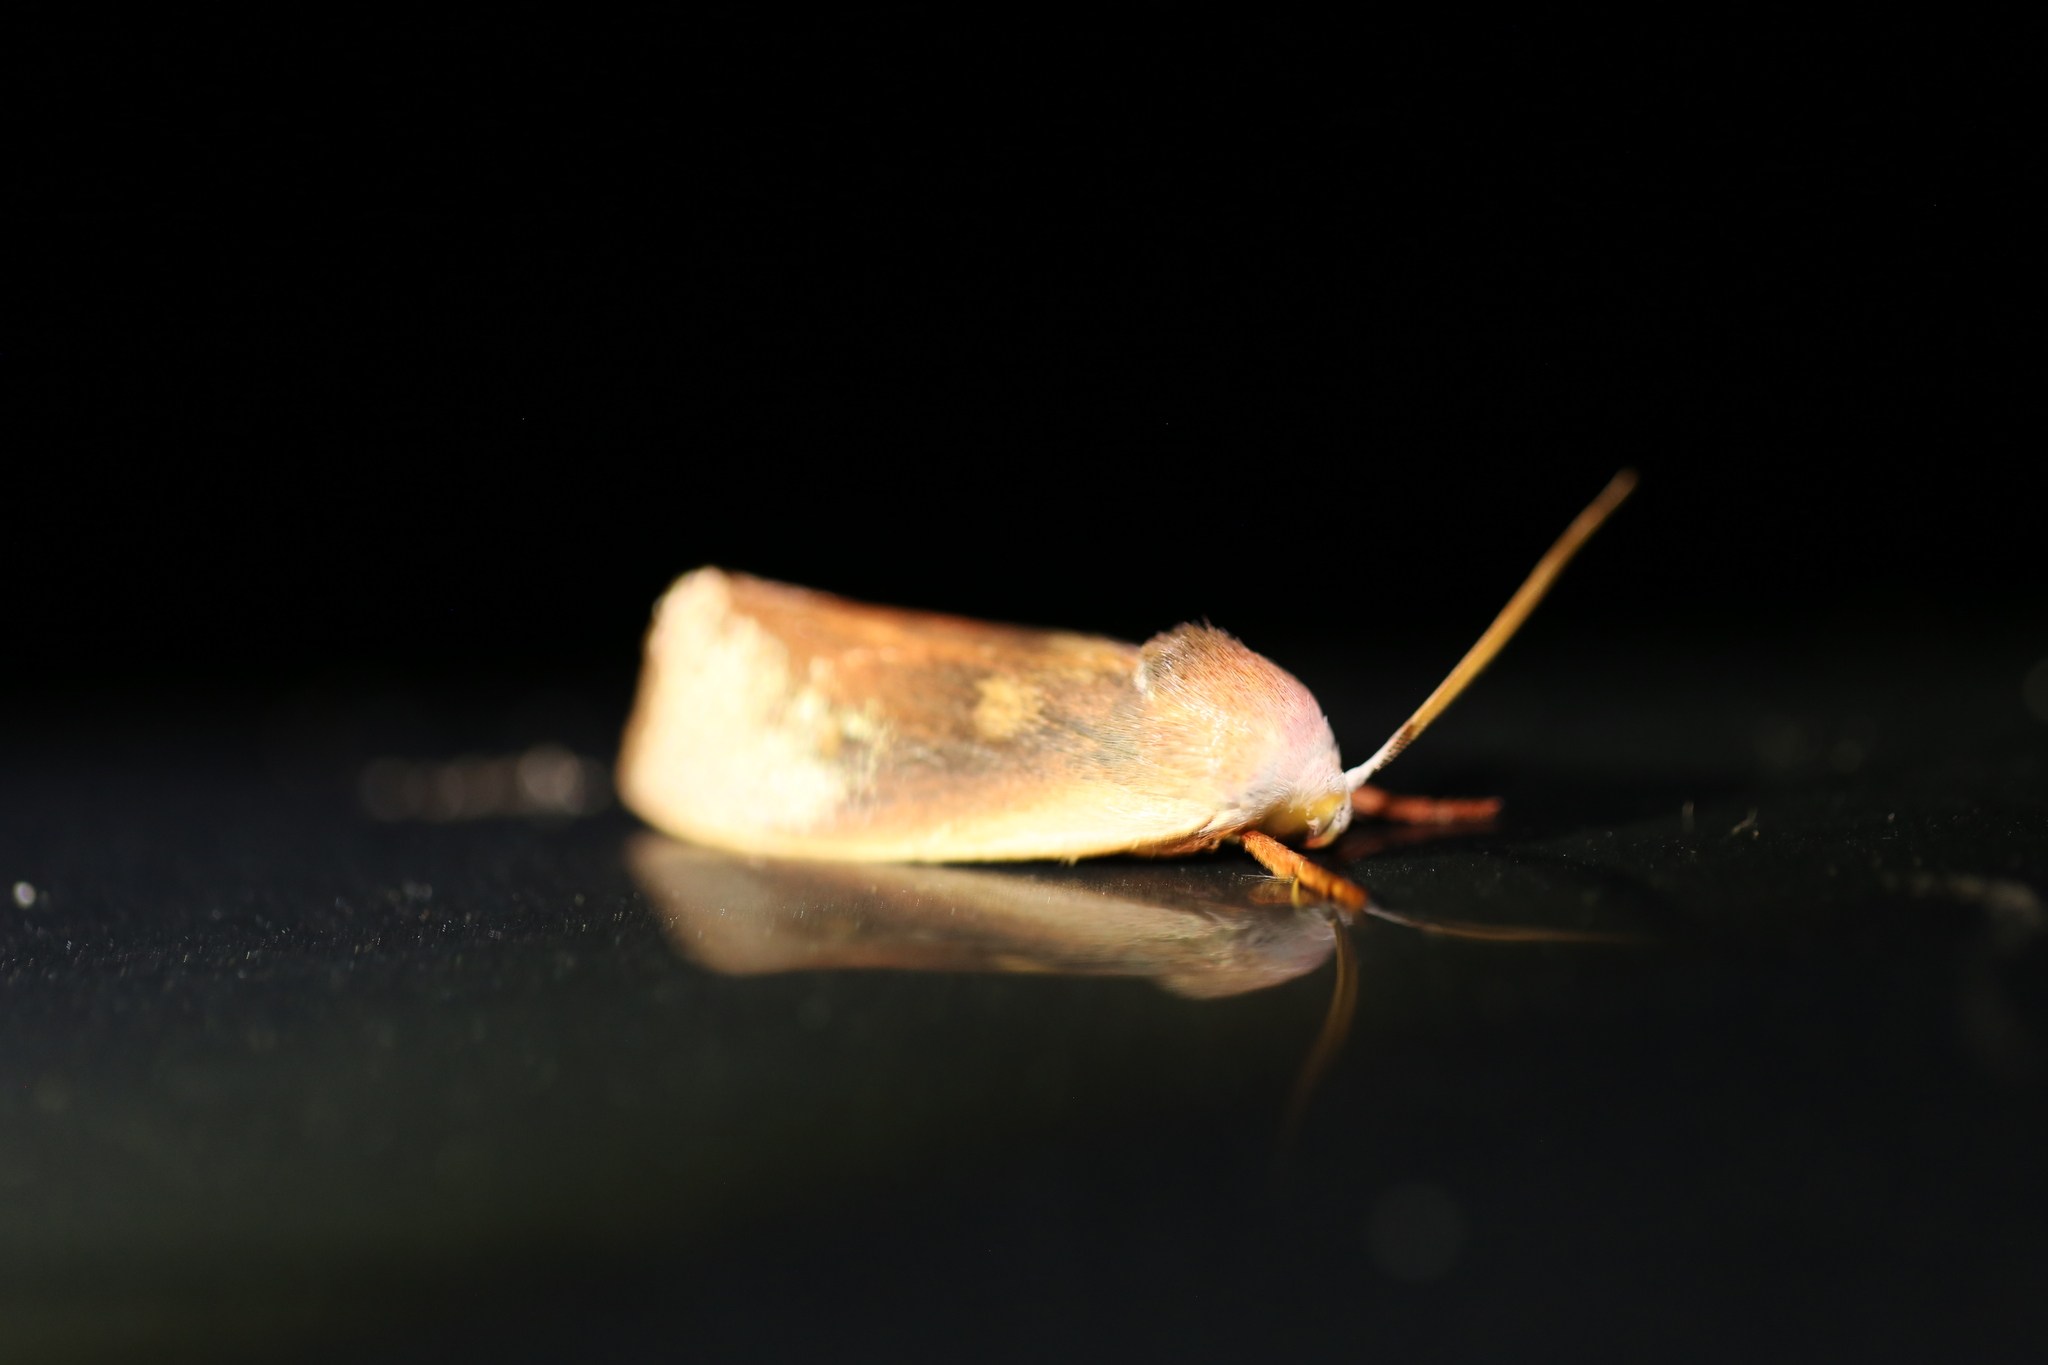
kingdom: Animalia
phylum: Arthropoda
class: Insecta
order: Lepidoptera
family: Xyloryctidae
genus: Cryptophasa
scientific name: Cryptophasa rubescens
